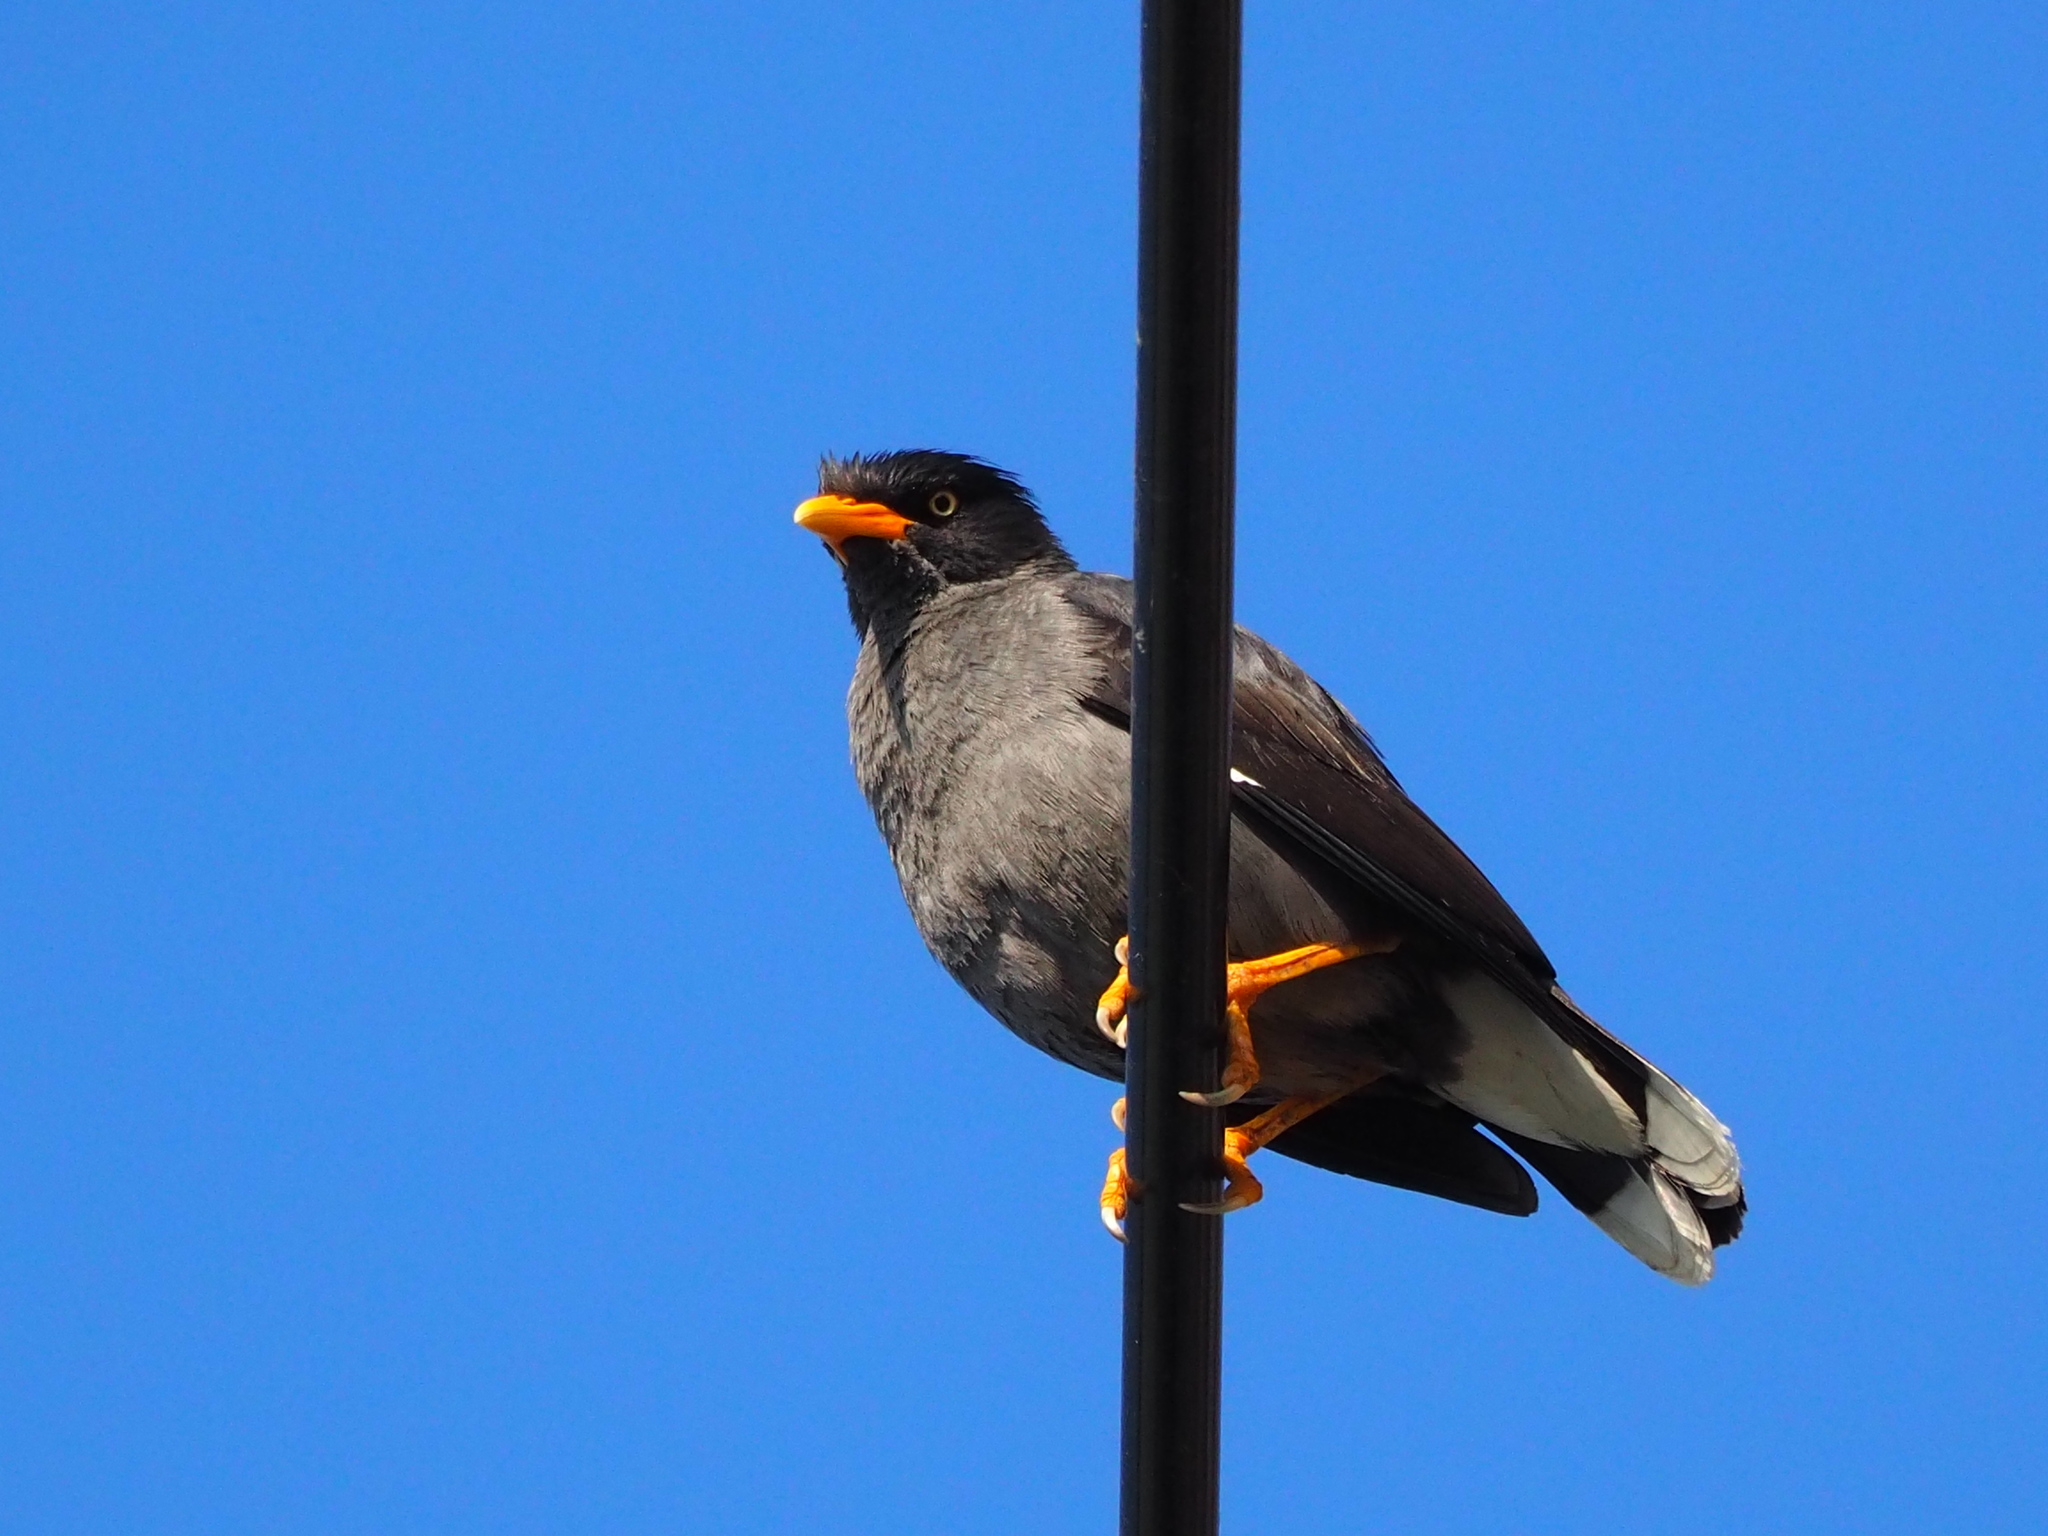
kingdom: Animalia
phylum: Chordata
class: Aves
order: Passeriformes
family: Sturnidae
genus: Acridotheres
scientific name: Acridotheres javanicus
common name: Javan myna
